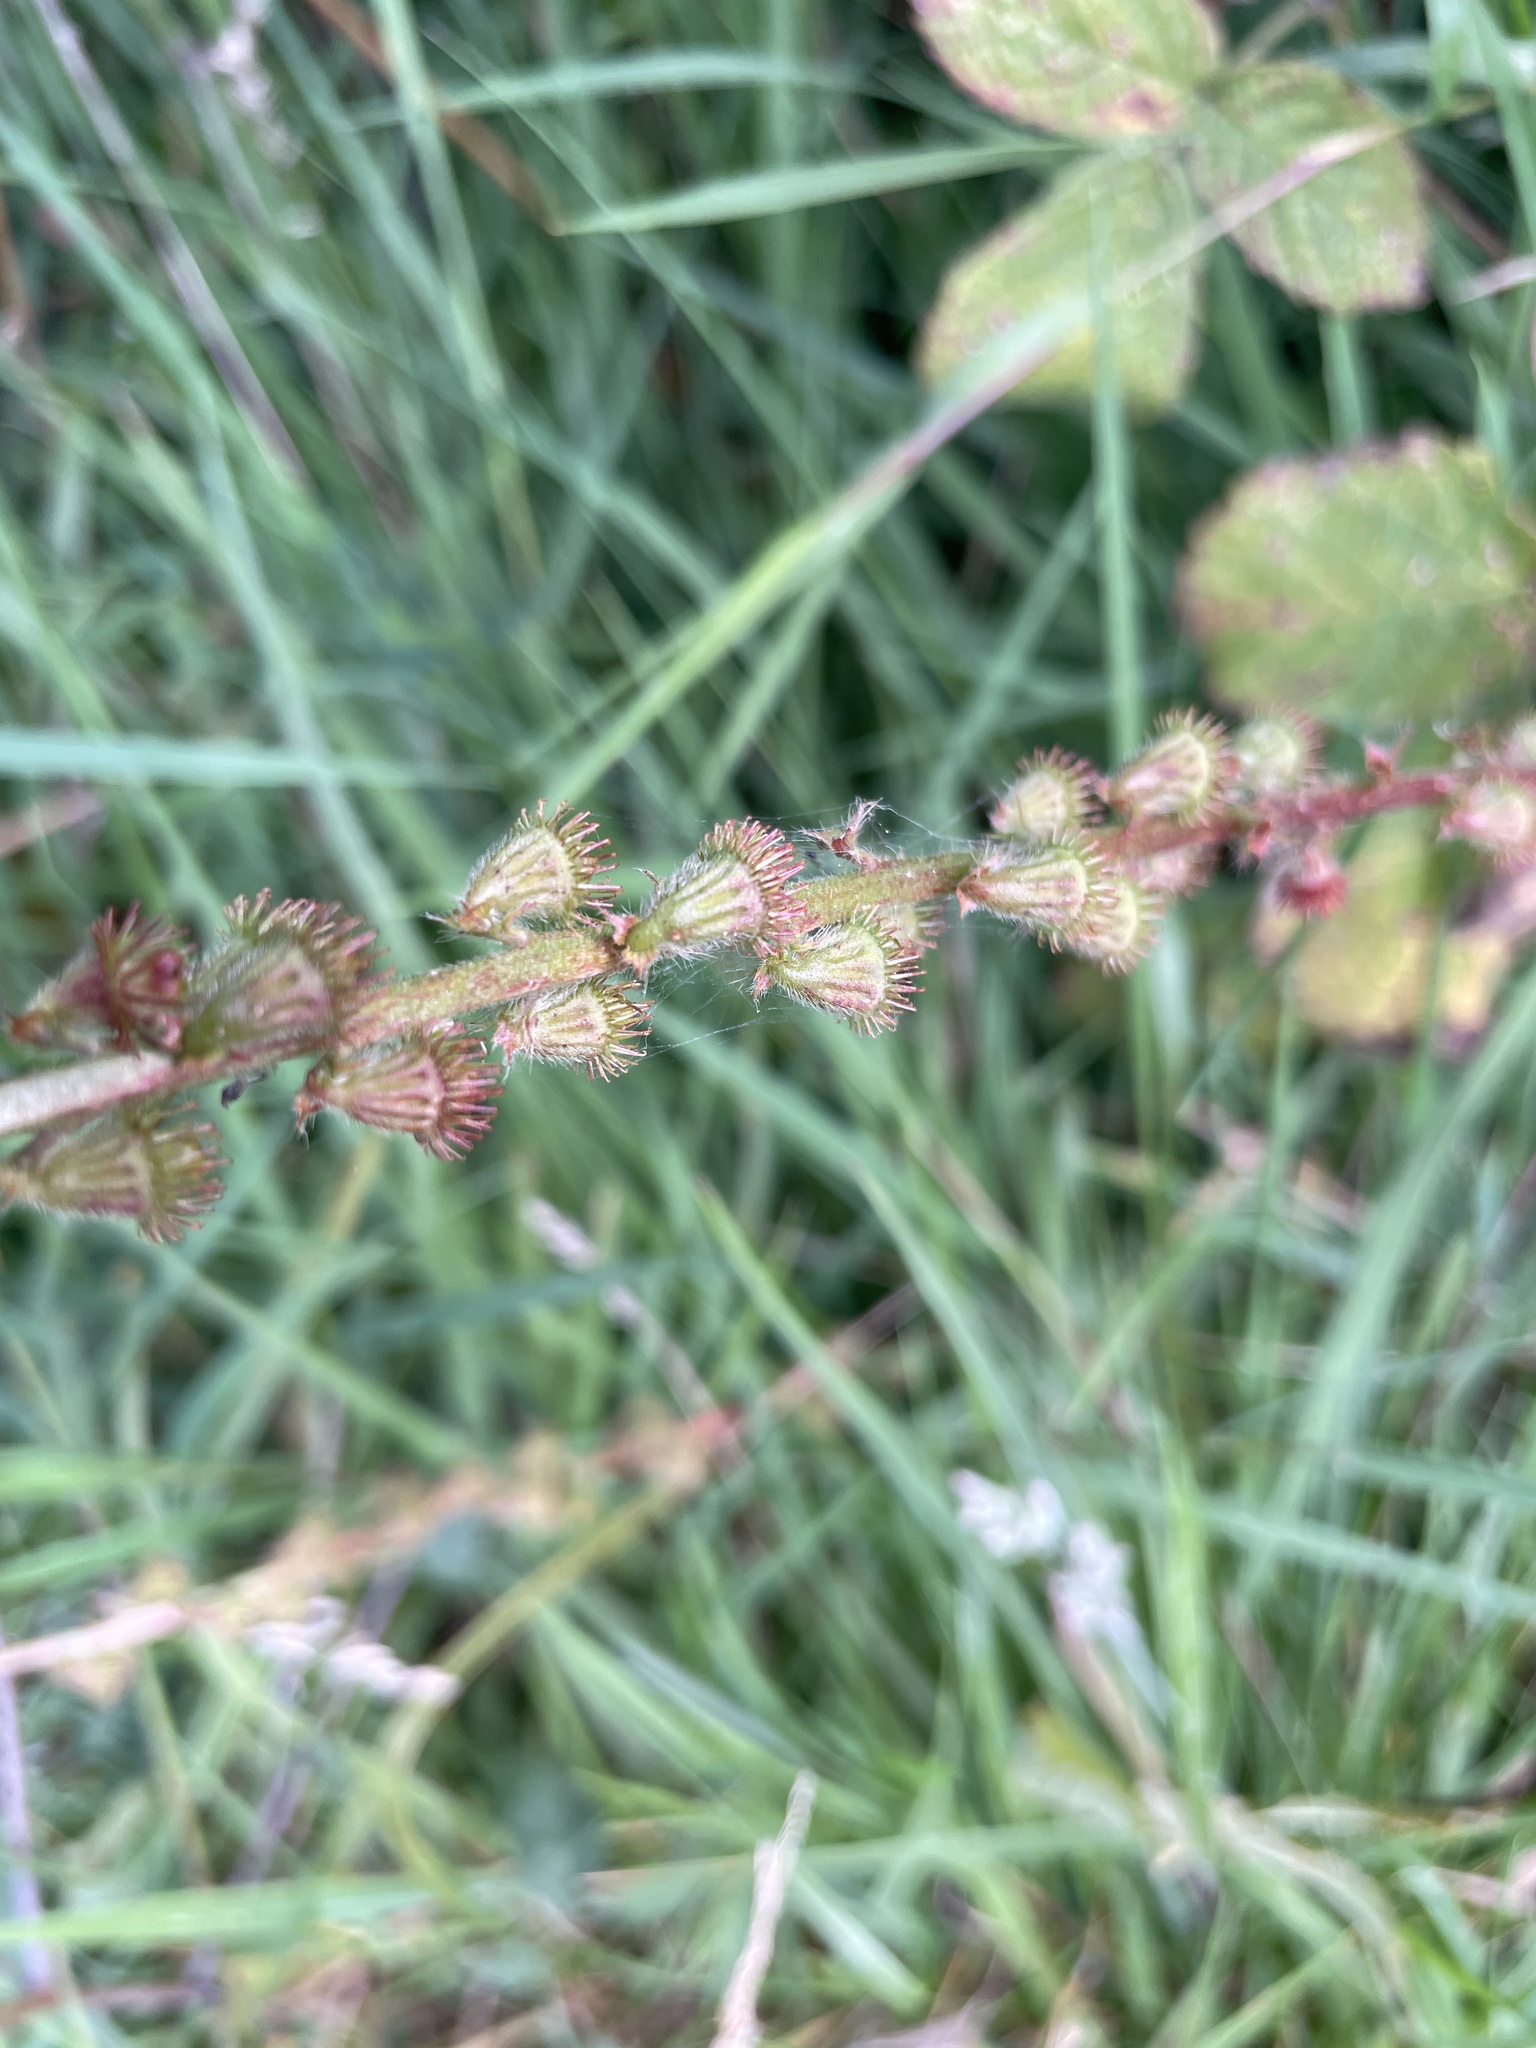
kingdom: Plantae
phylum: Tracheophyta
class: Magnoliopsida
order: Rosales
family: Rosaceae
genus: Agrimonia
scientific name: Agrimonia eupatoria
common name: Agrimony
